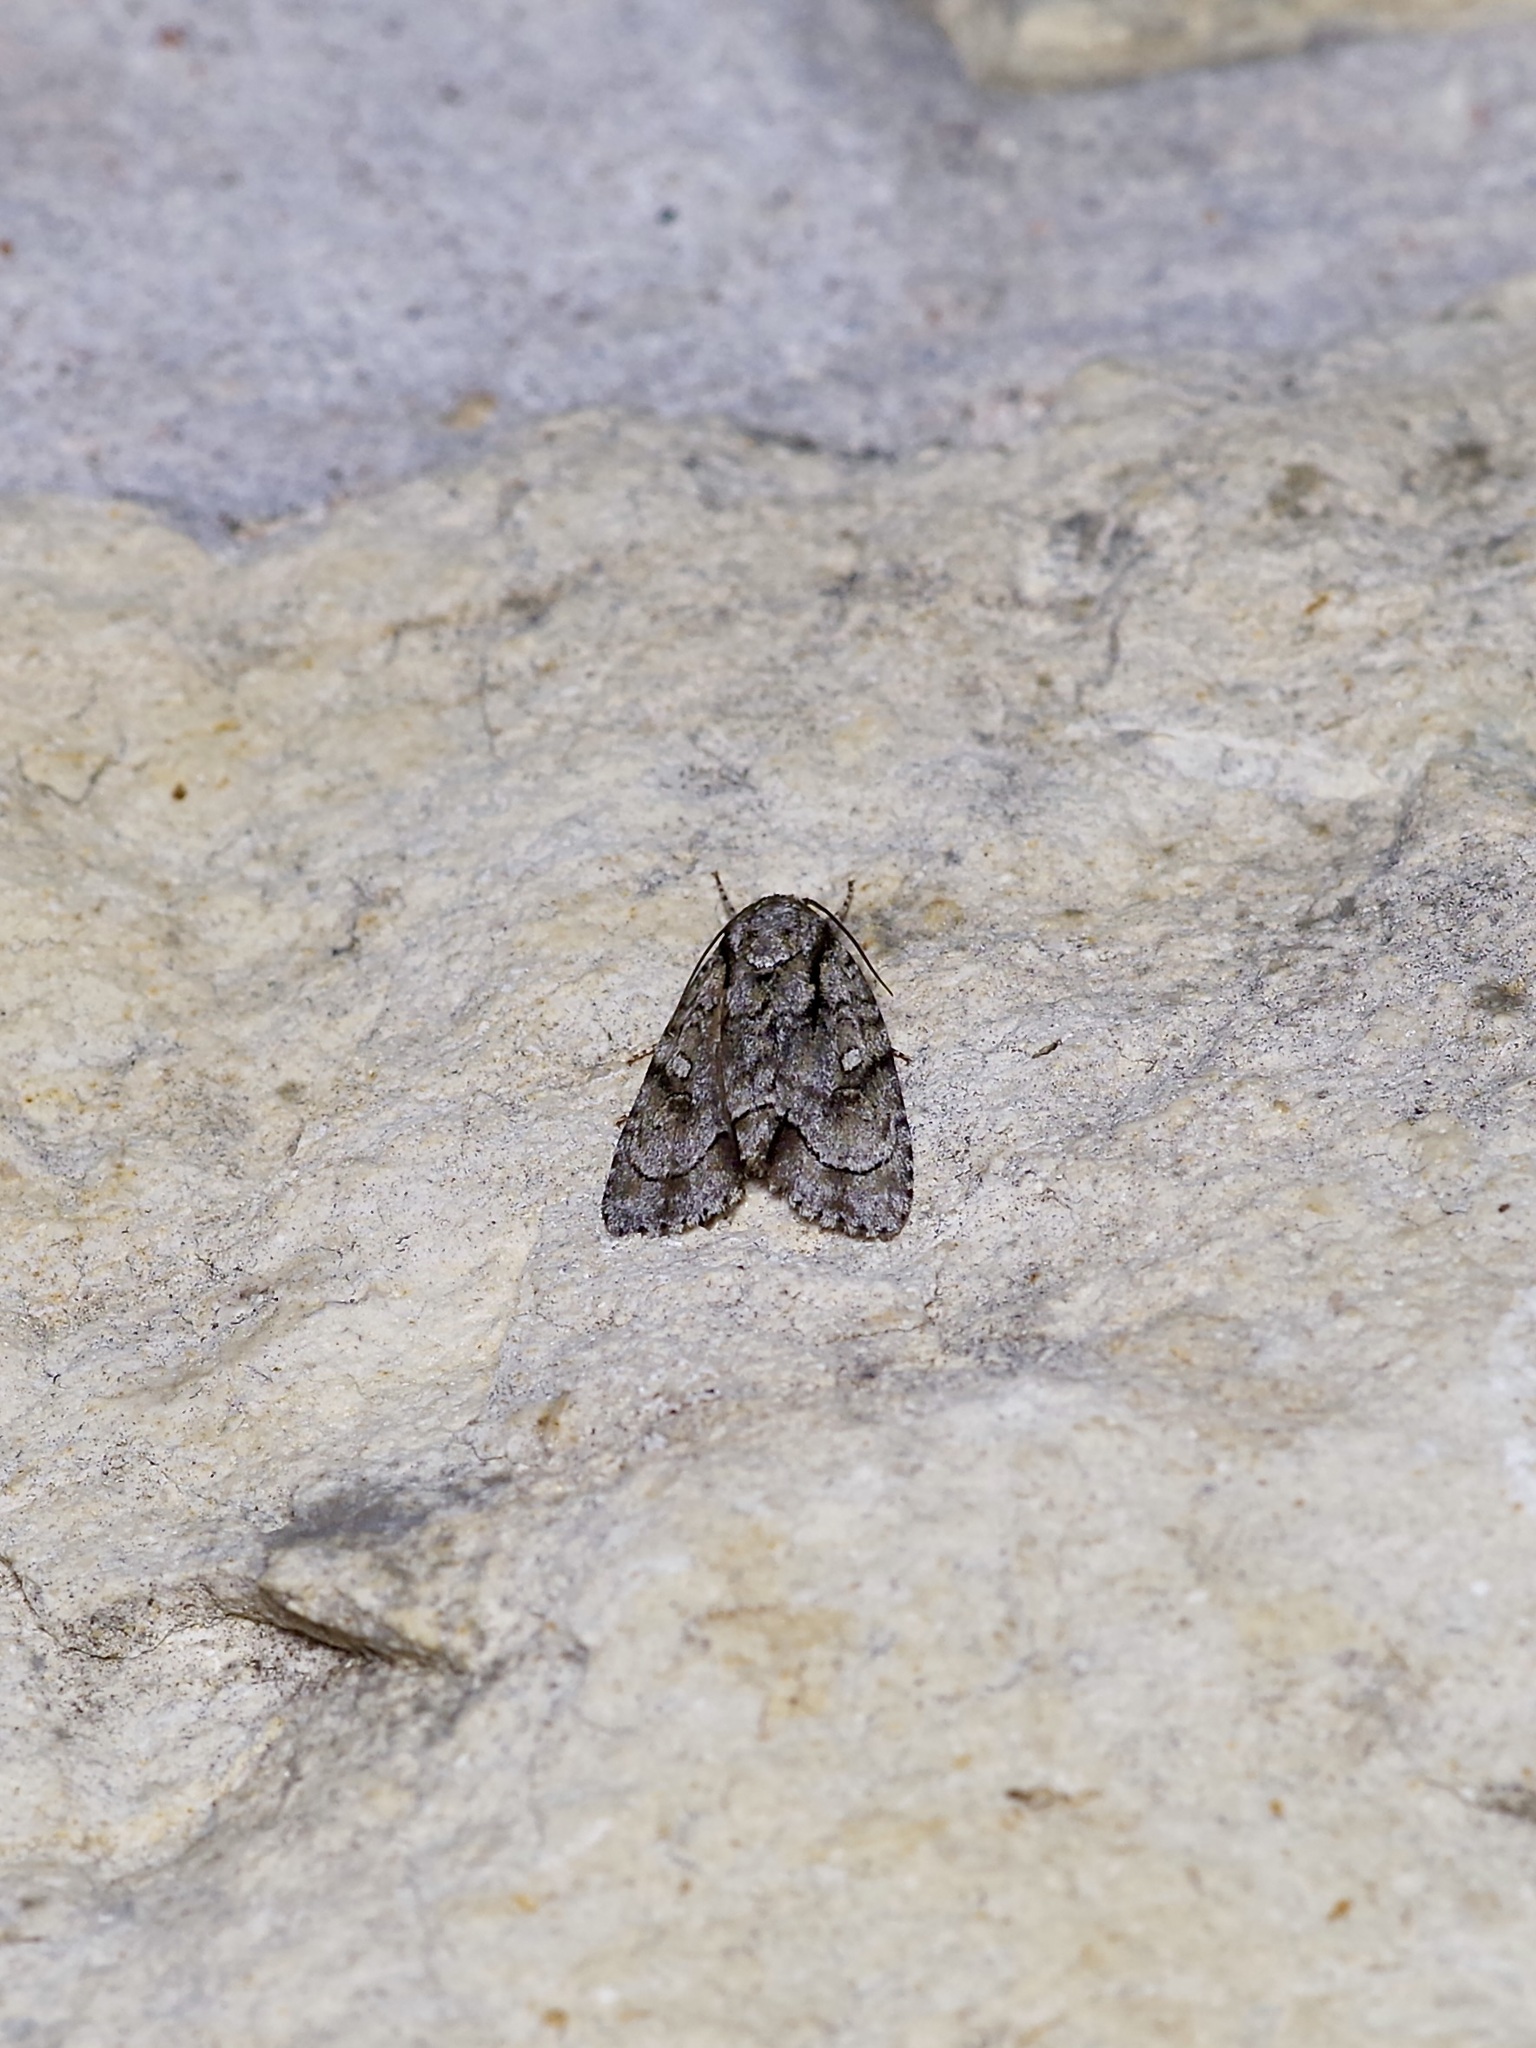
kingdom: Animalia
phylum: Arthropoda
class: Insecta
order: Lepidoptera
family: Noctuidae
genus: Acronicta
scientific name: Acronicta vinnula
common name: Delightful dagger
